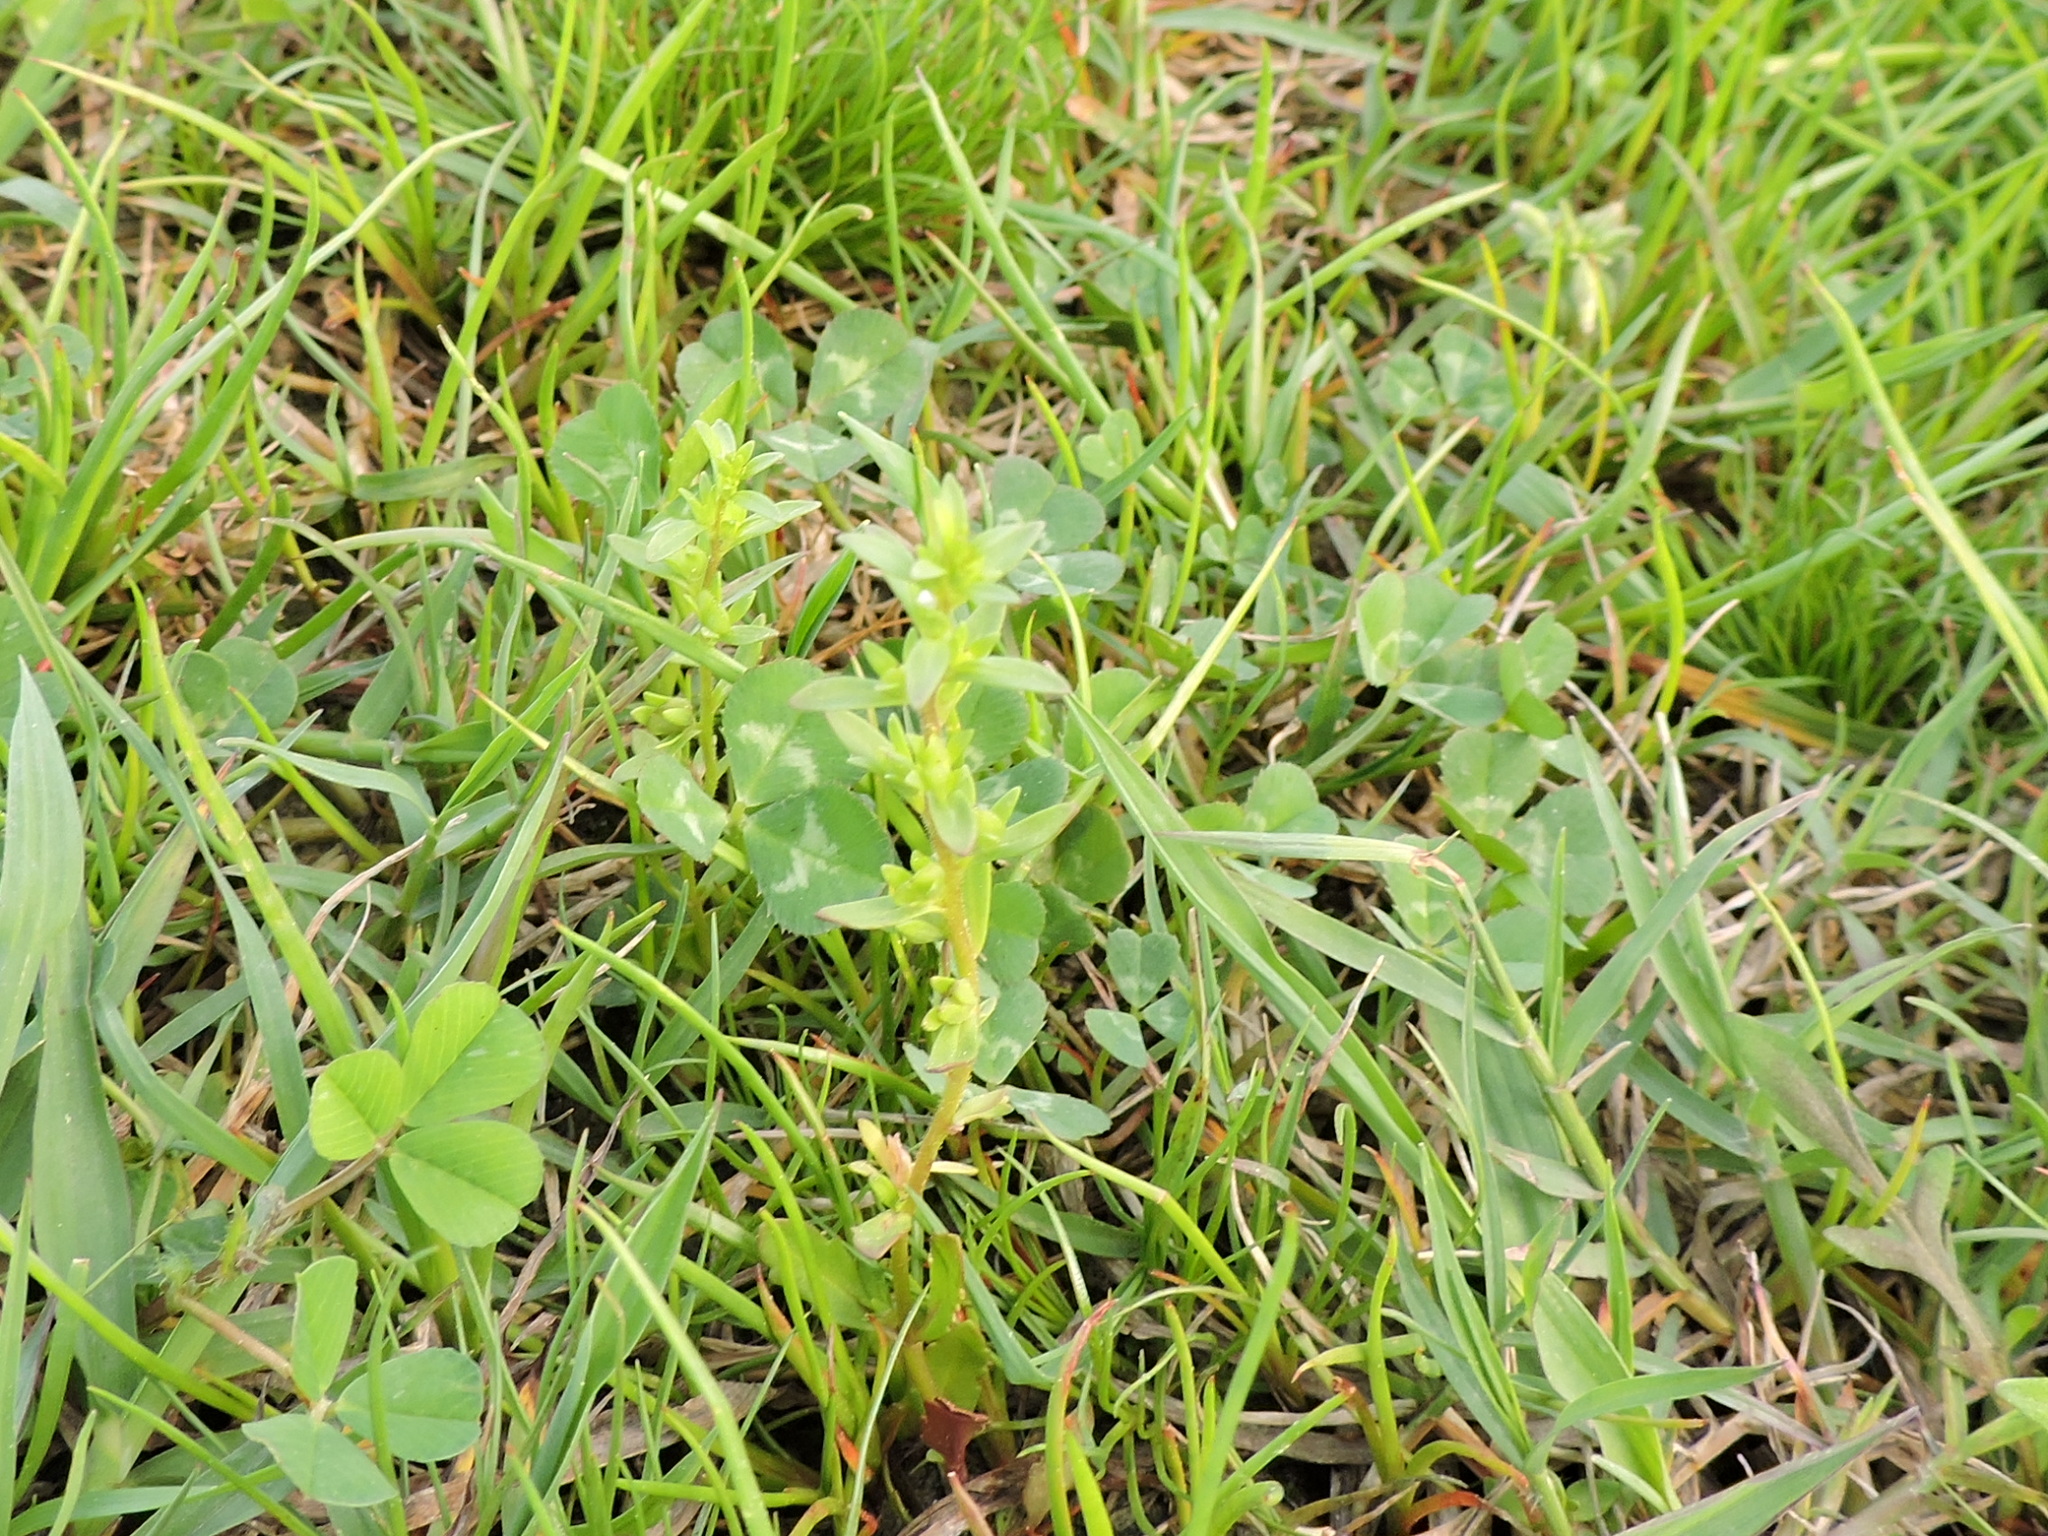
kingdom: Plantae
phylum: Tracheophyta
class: Magnoliopsida
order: Lamiales
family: Plantaginaceae
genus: Veronica
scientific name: Veronica peregrina
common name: Neckweed
